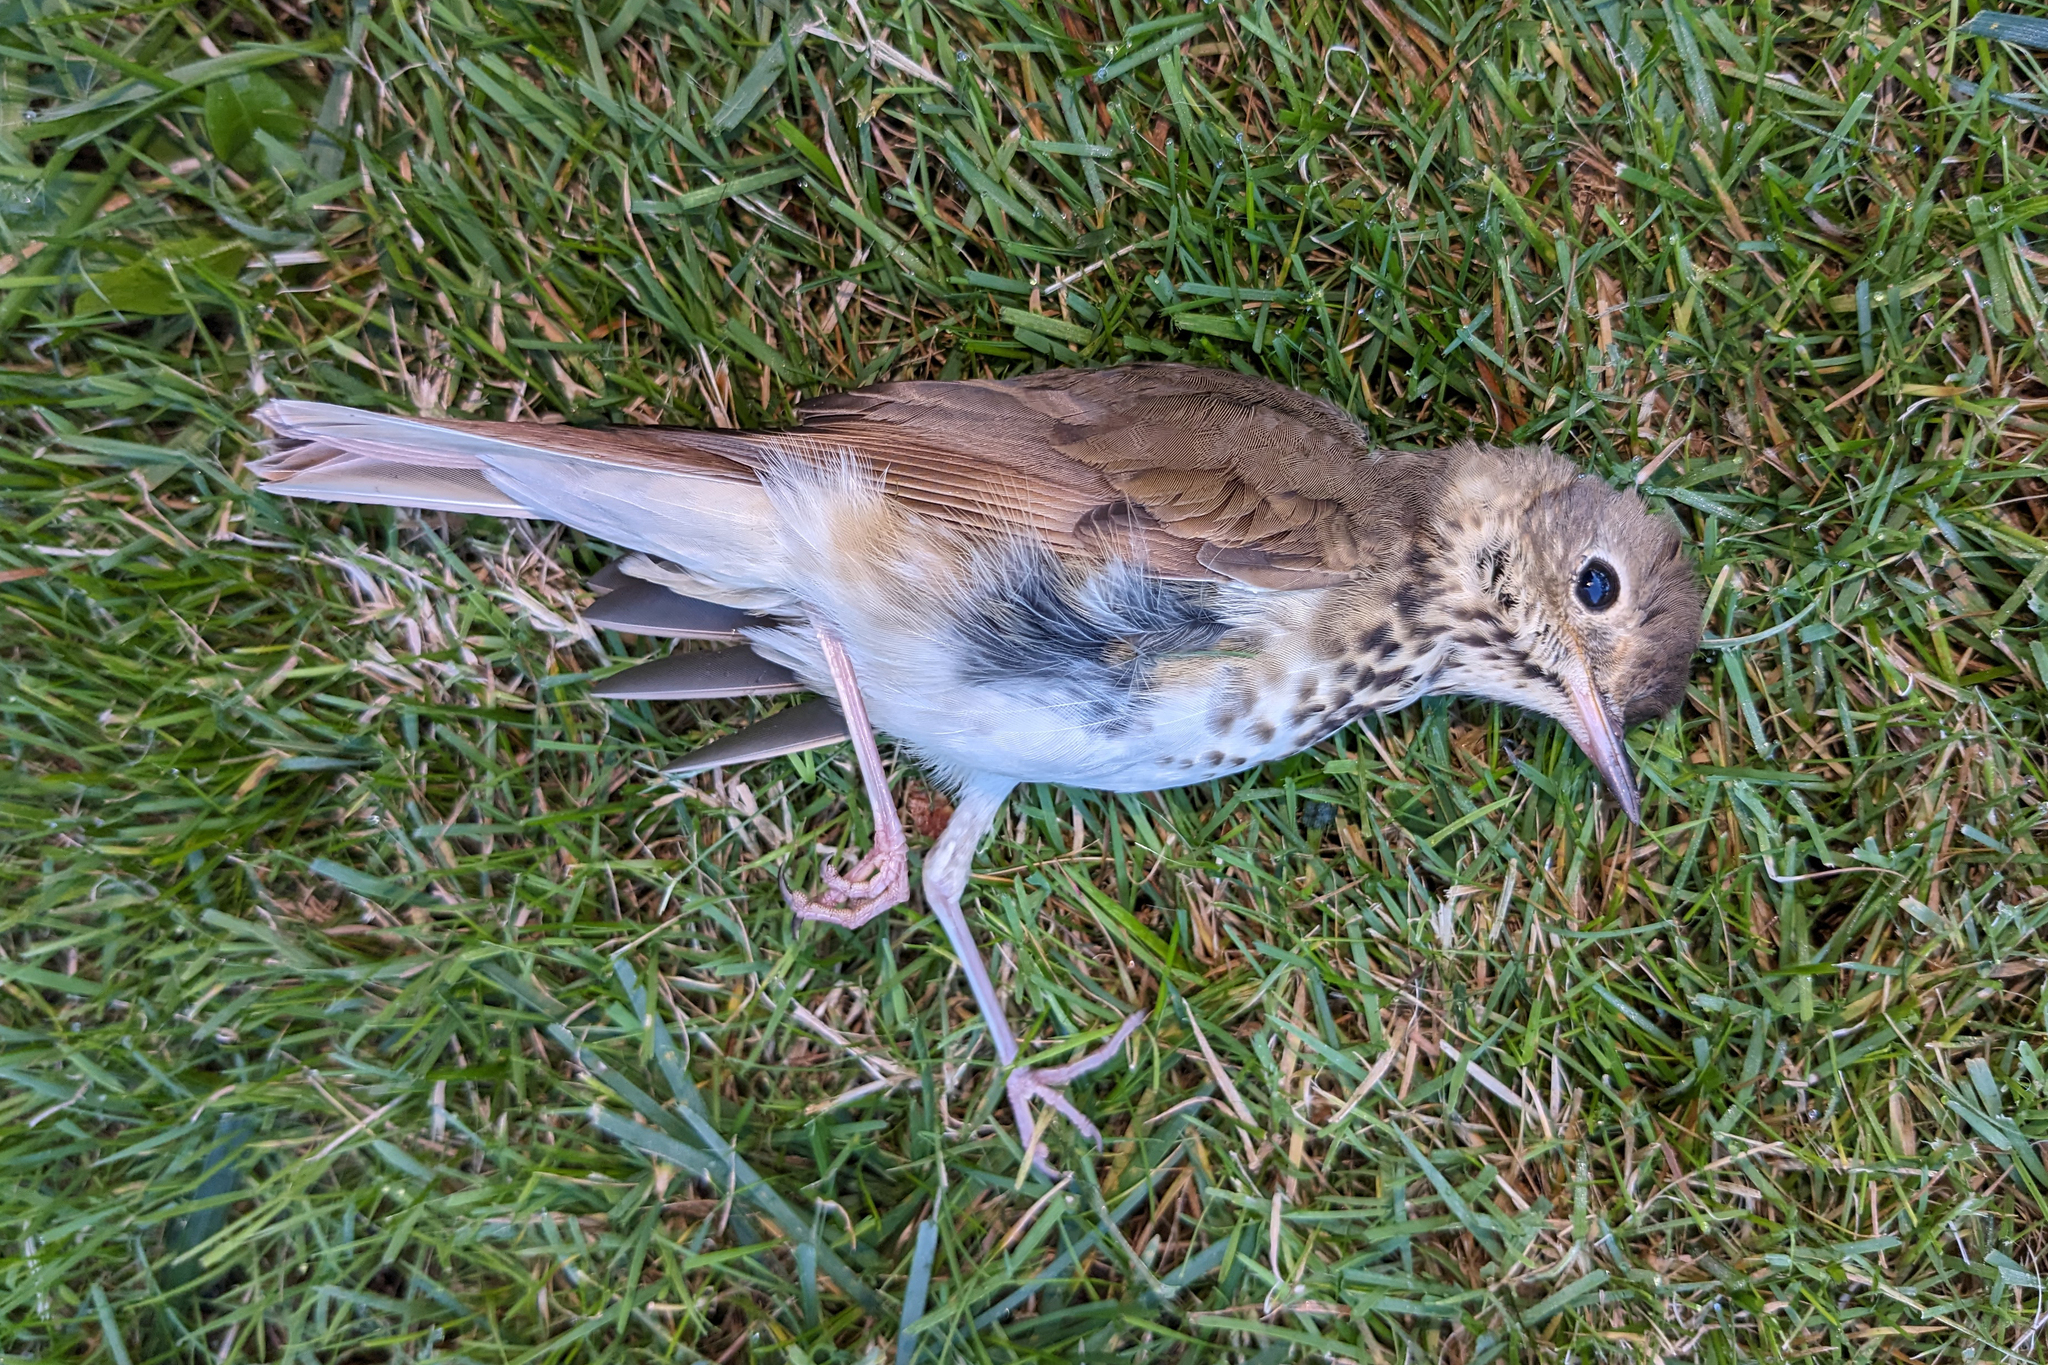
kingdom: Animalia
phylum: Chordata
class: Aves
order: Passeriformes
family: Turdidae
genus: Catharus
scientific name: Catharus guttatus
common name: Hermit thrush
